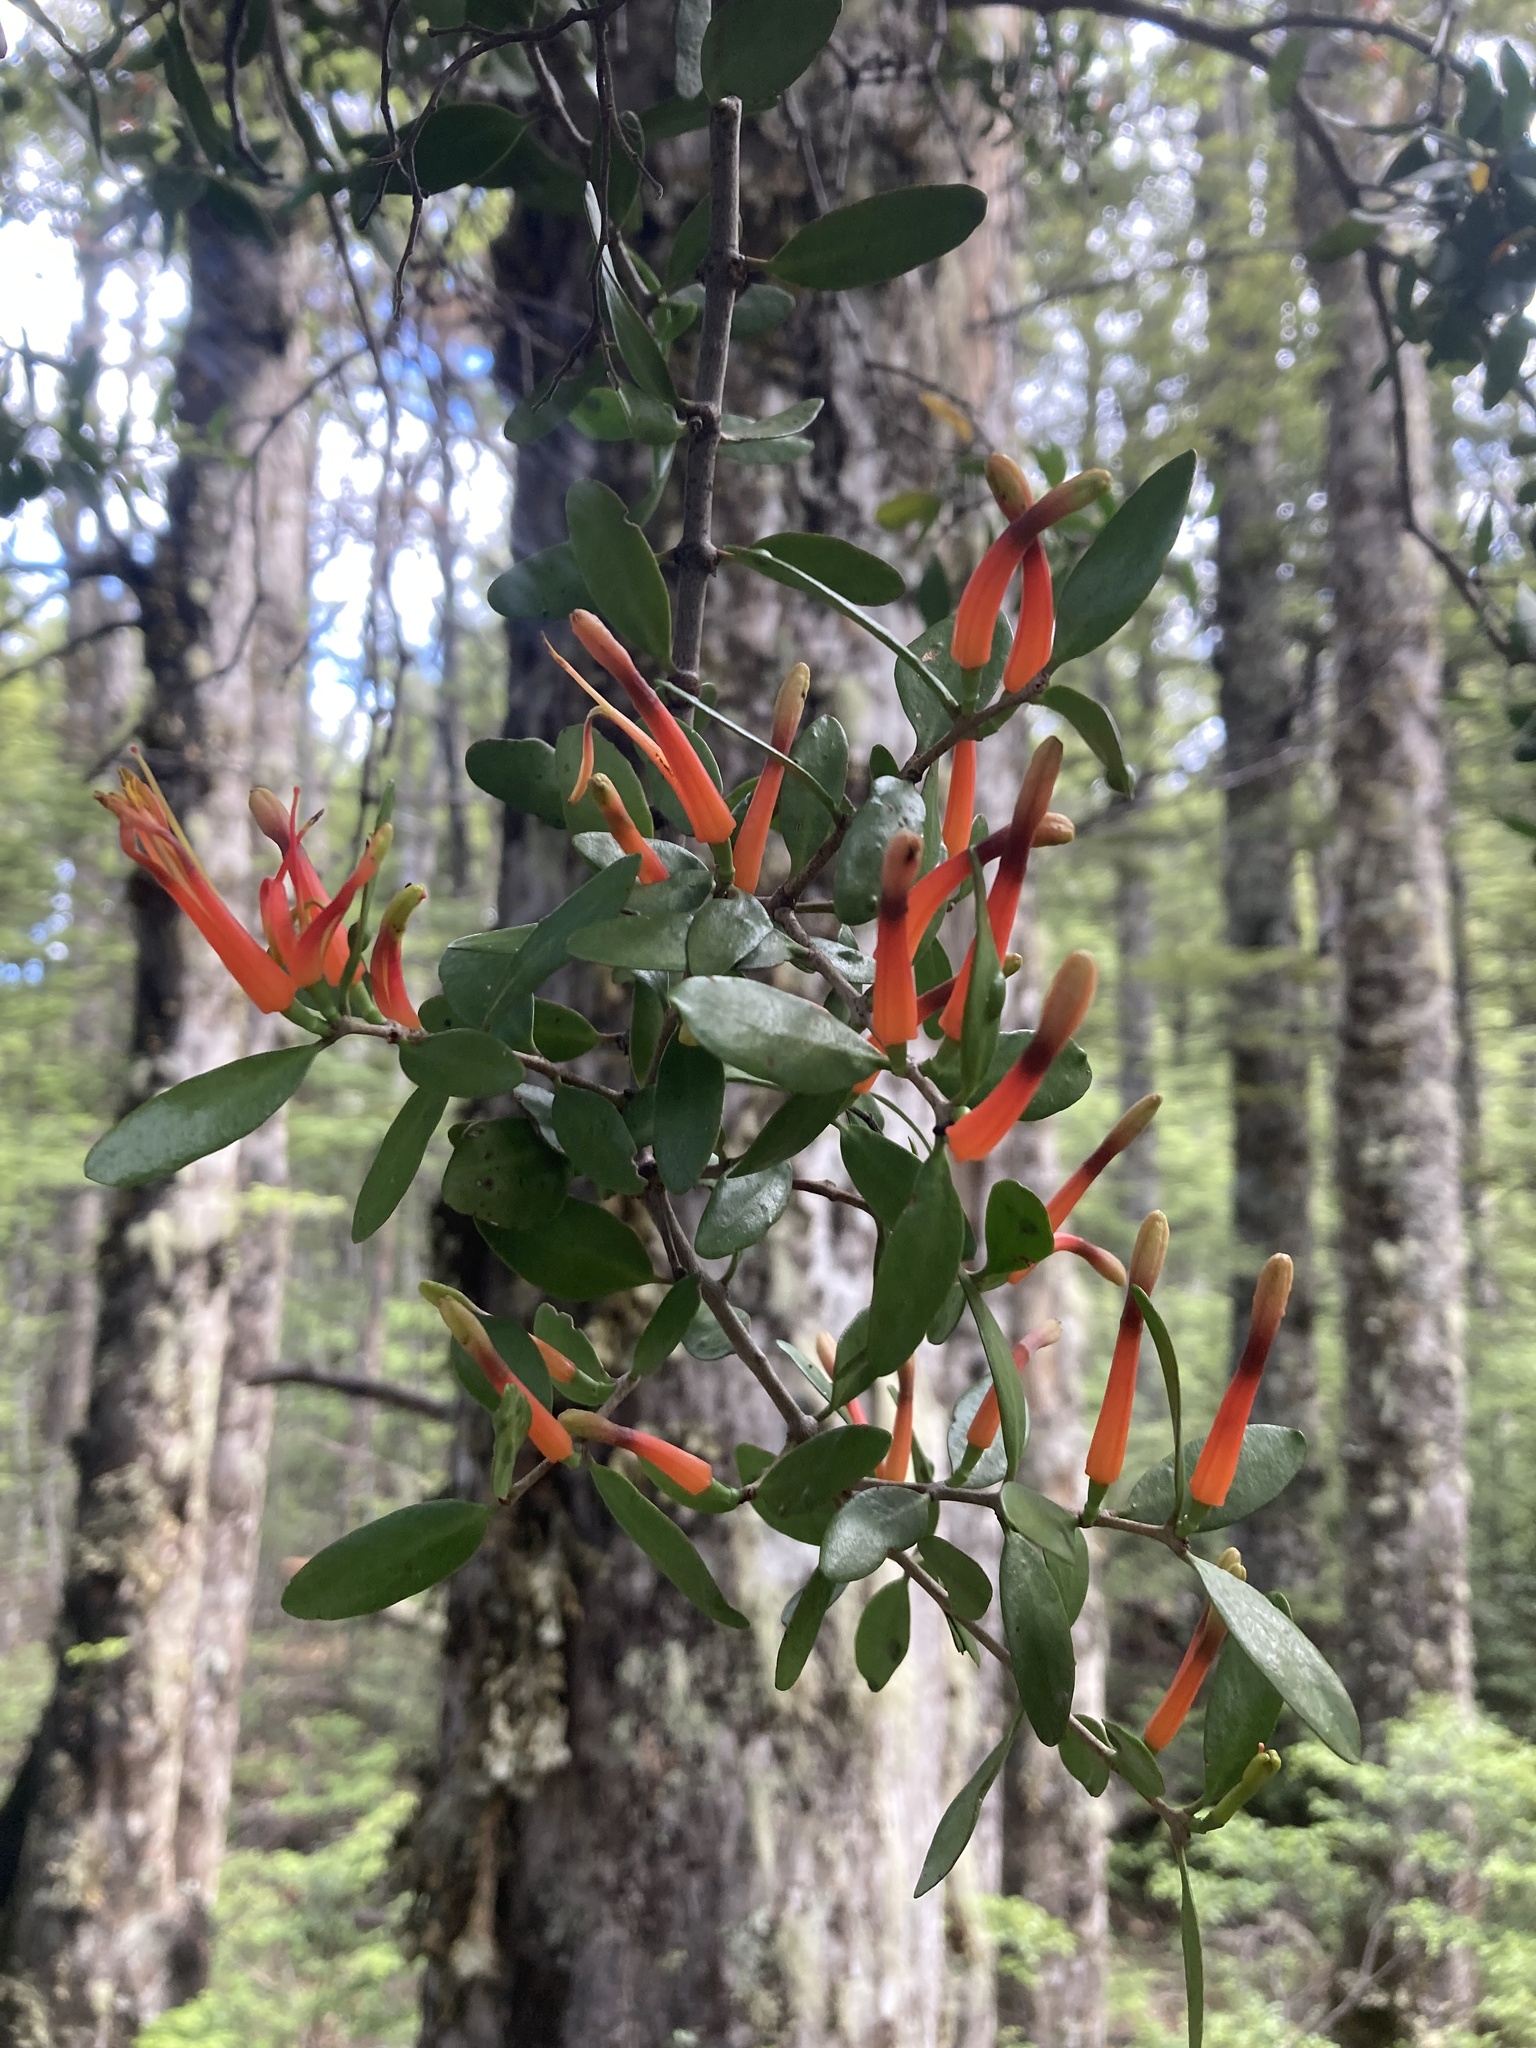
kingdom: Plantae
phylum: Tracheophyta
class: Magnoliopsida
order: Santalales
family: Loranthaceae
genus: Peraxilla
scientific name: Peraxilla tetrapetala
